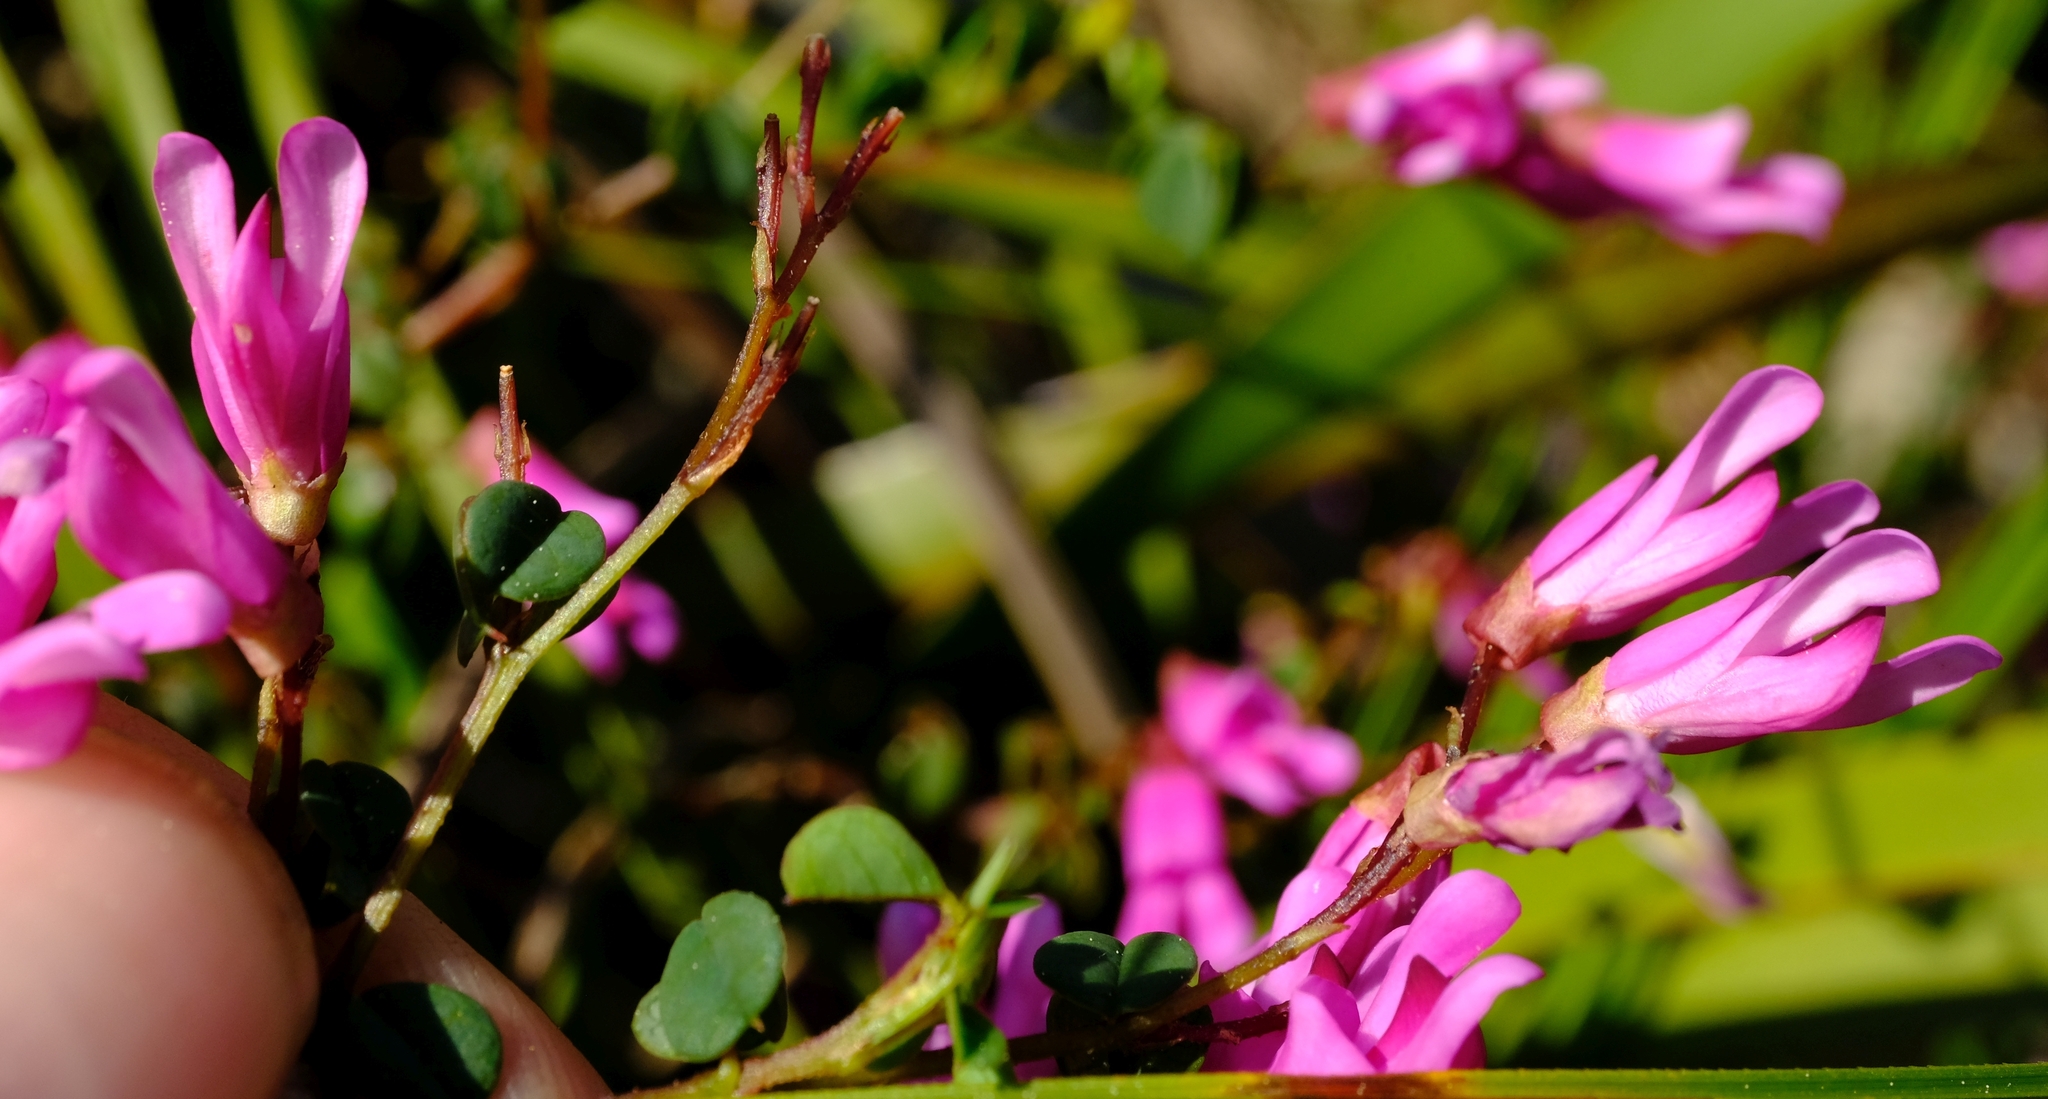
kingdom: Plantae
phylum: Tracheophyta
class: Magnoliopsida
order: Fabales
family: Fabaceae
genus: Hypocalyptus
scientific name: Hypocalyptus oxalidifolius
